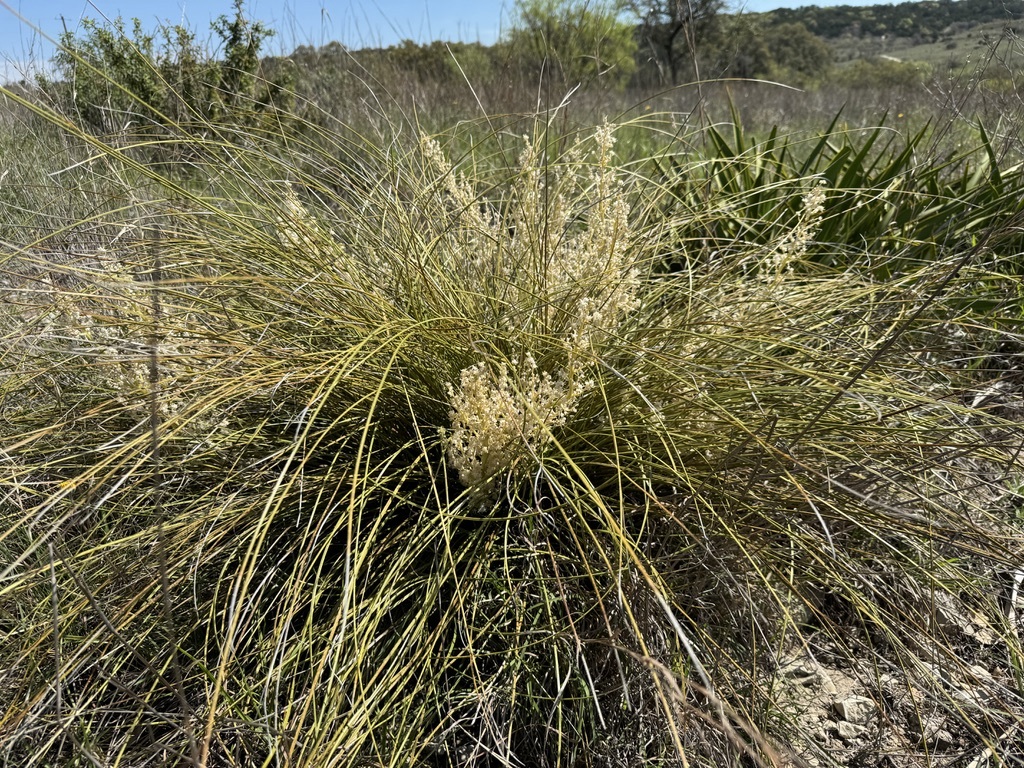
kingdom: Plantae
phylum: Tracheophyta
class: Liliopsida
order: Asparagales
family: Asparagaceae
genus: Nolina
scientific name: Nolina texana
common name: Texas sacahuiste
